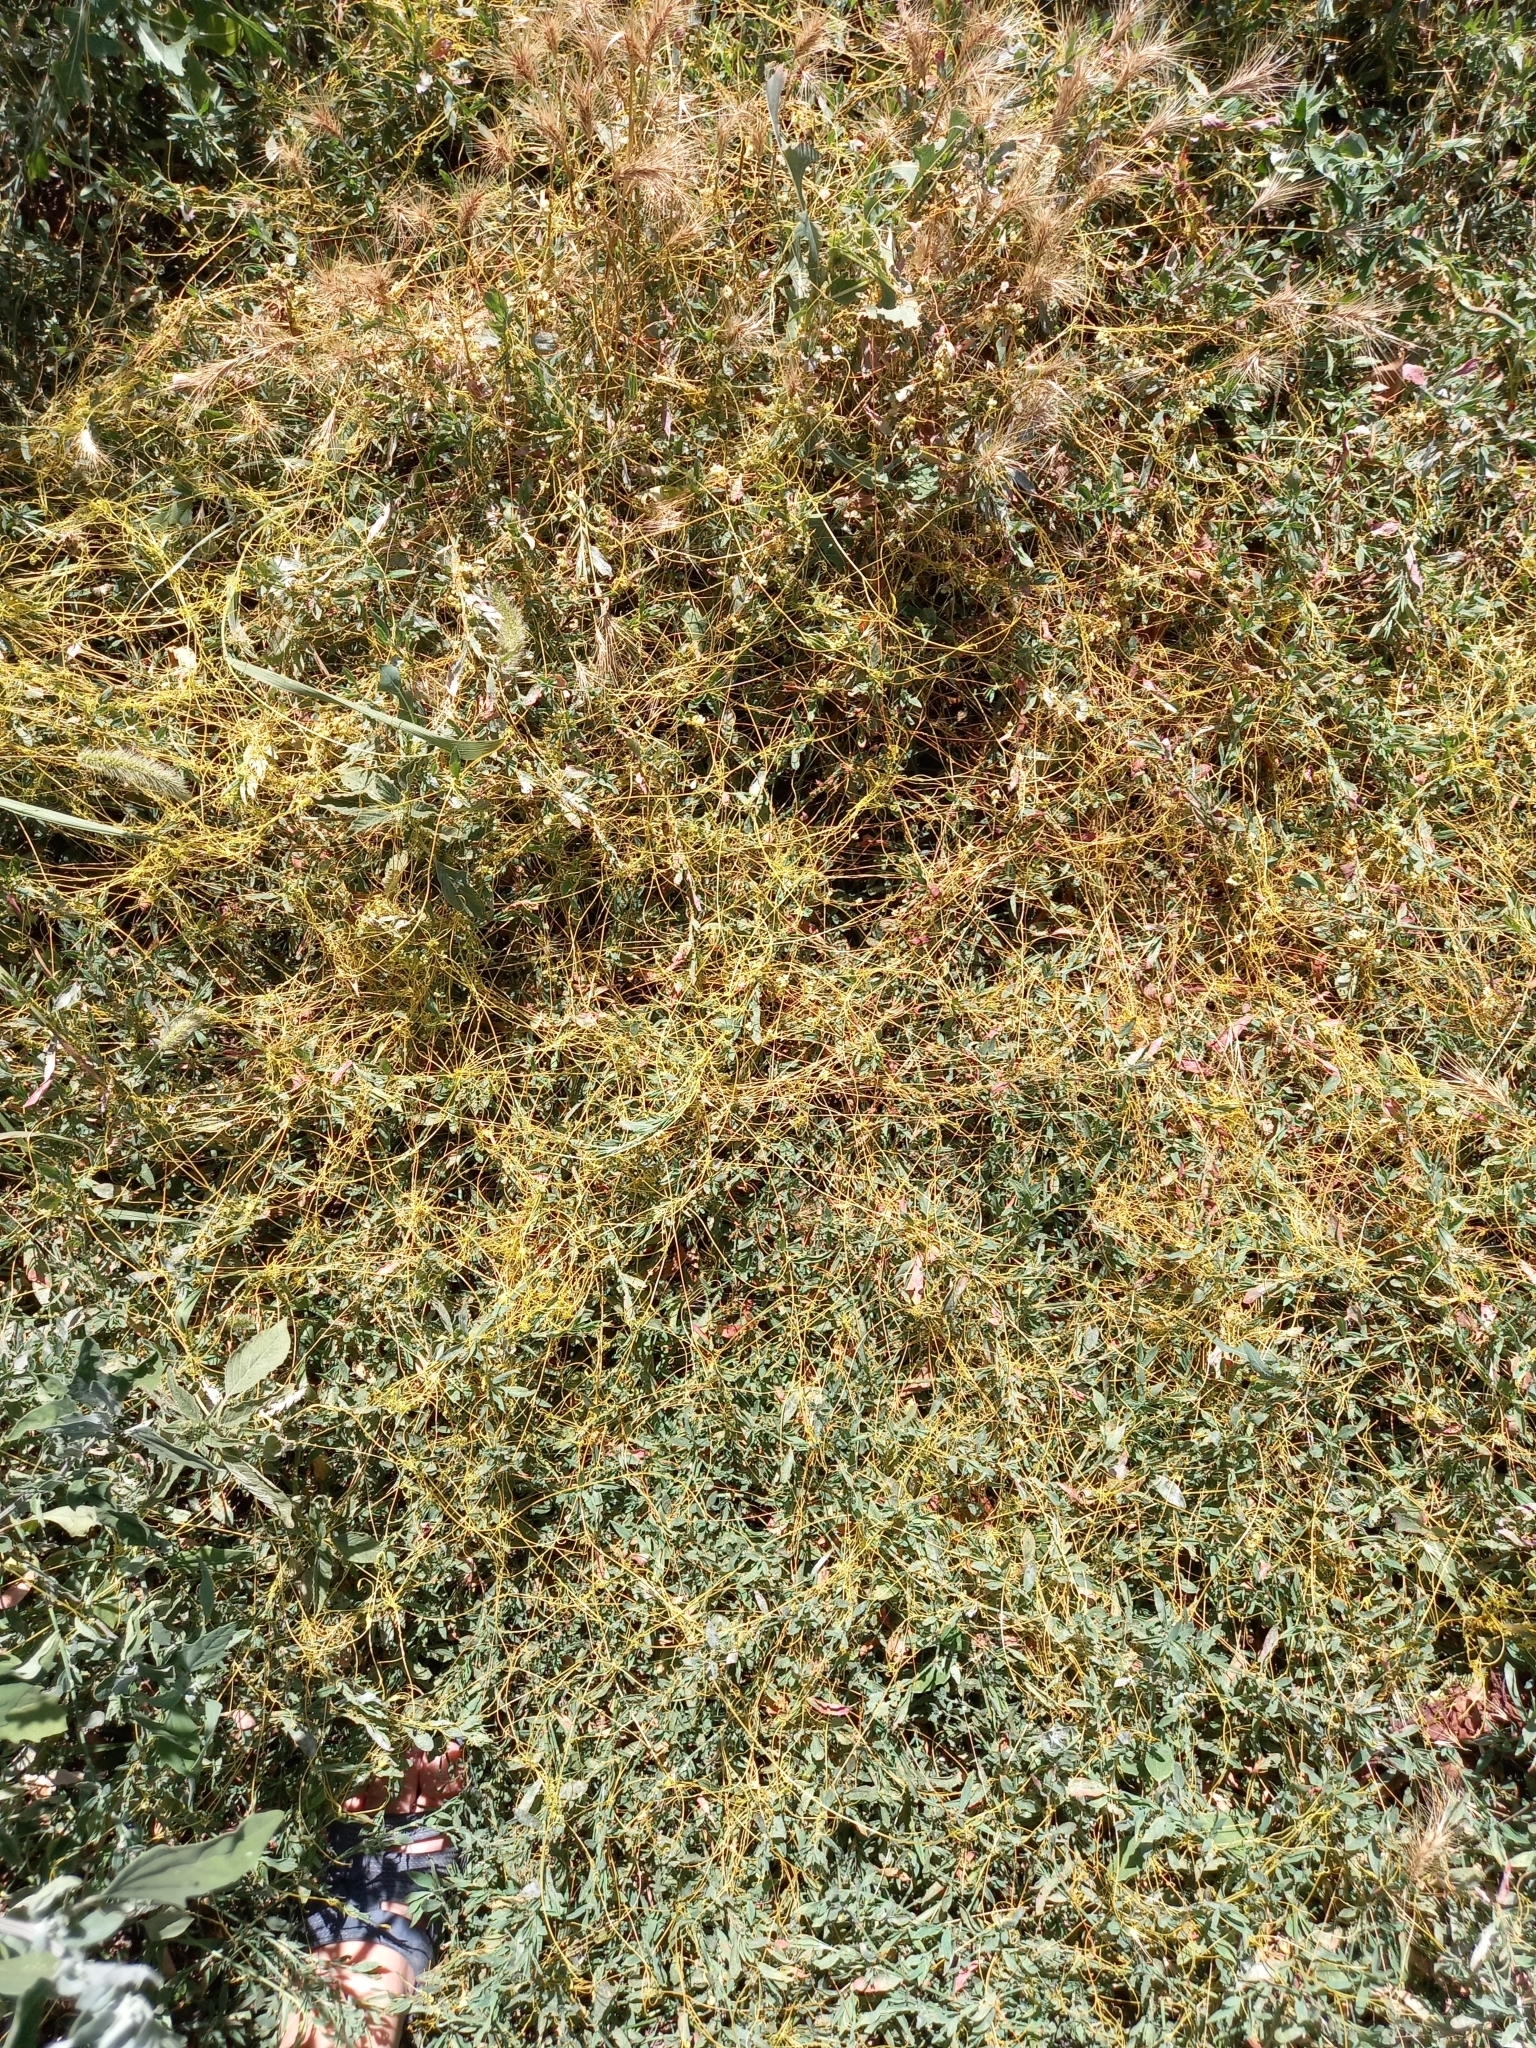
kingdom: Plantae
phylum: Tracheophyta
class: Magnoliopsida
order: Solanales
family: Convolvulaceae
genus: Cuscuta
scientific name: Cuscuta campestris
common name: Yellow dodder
